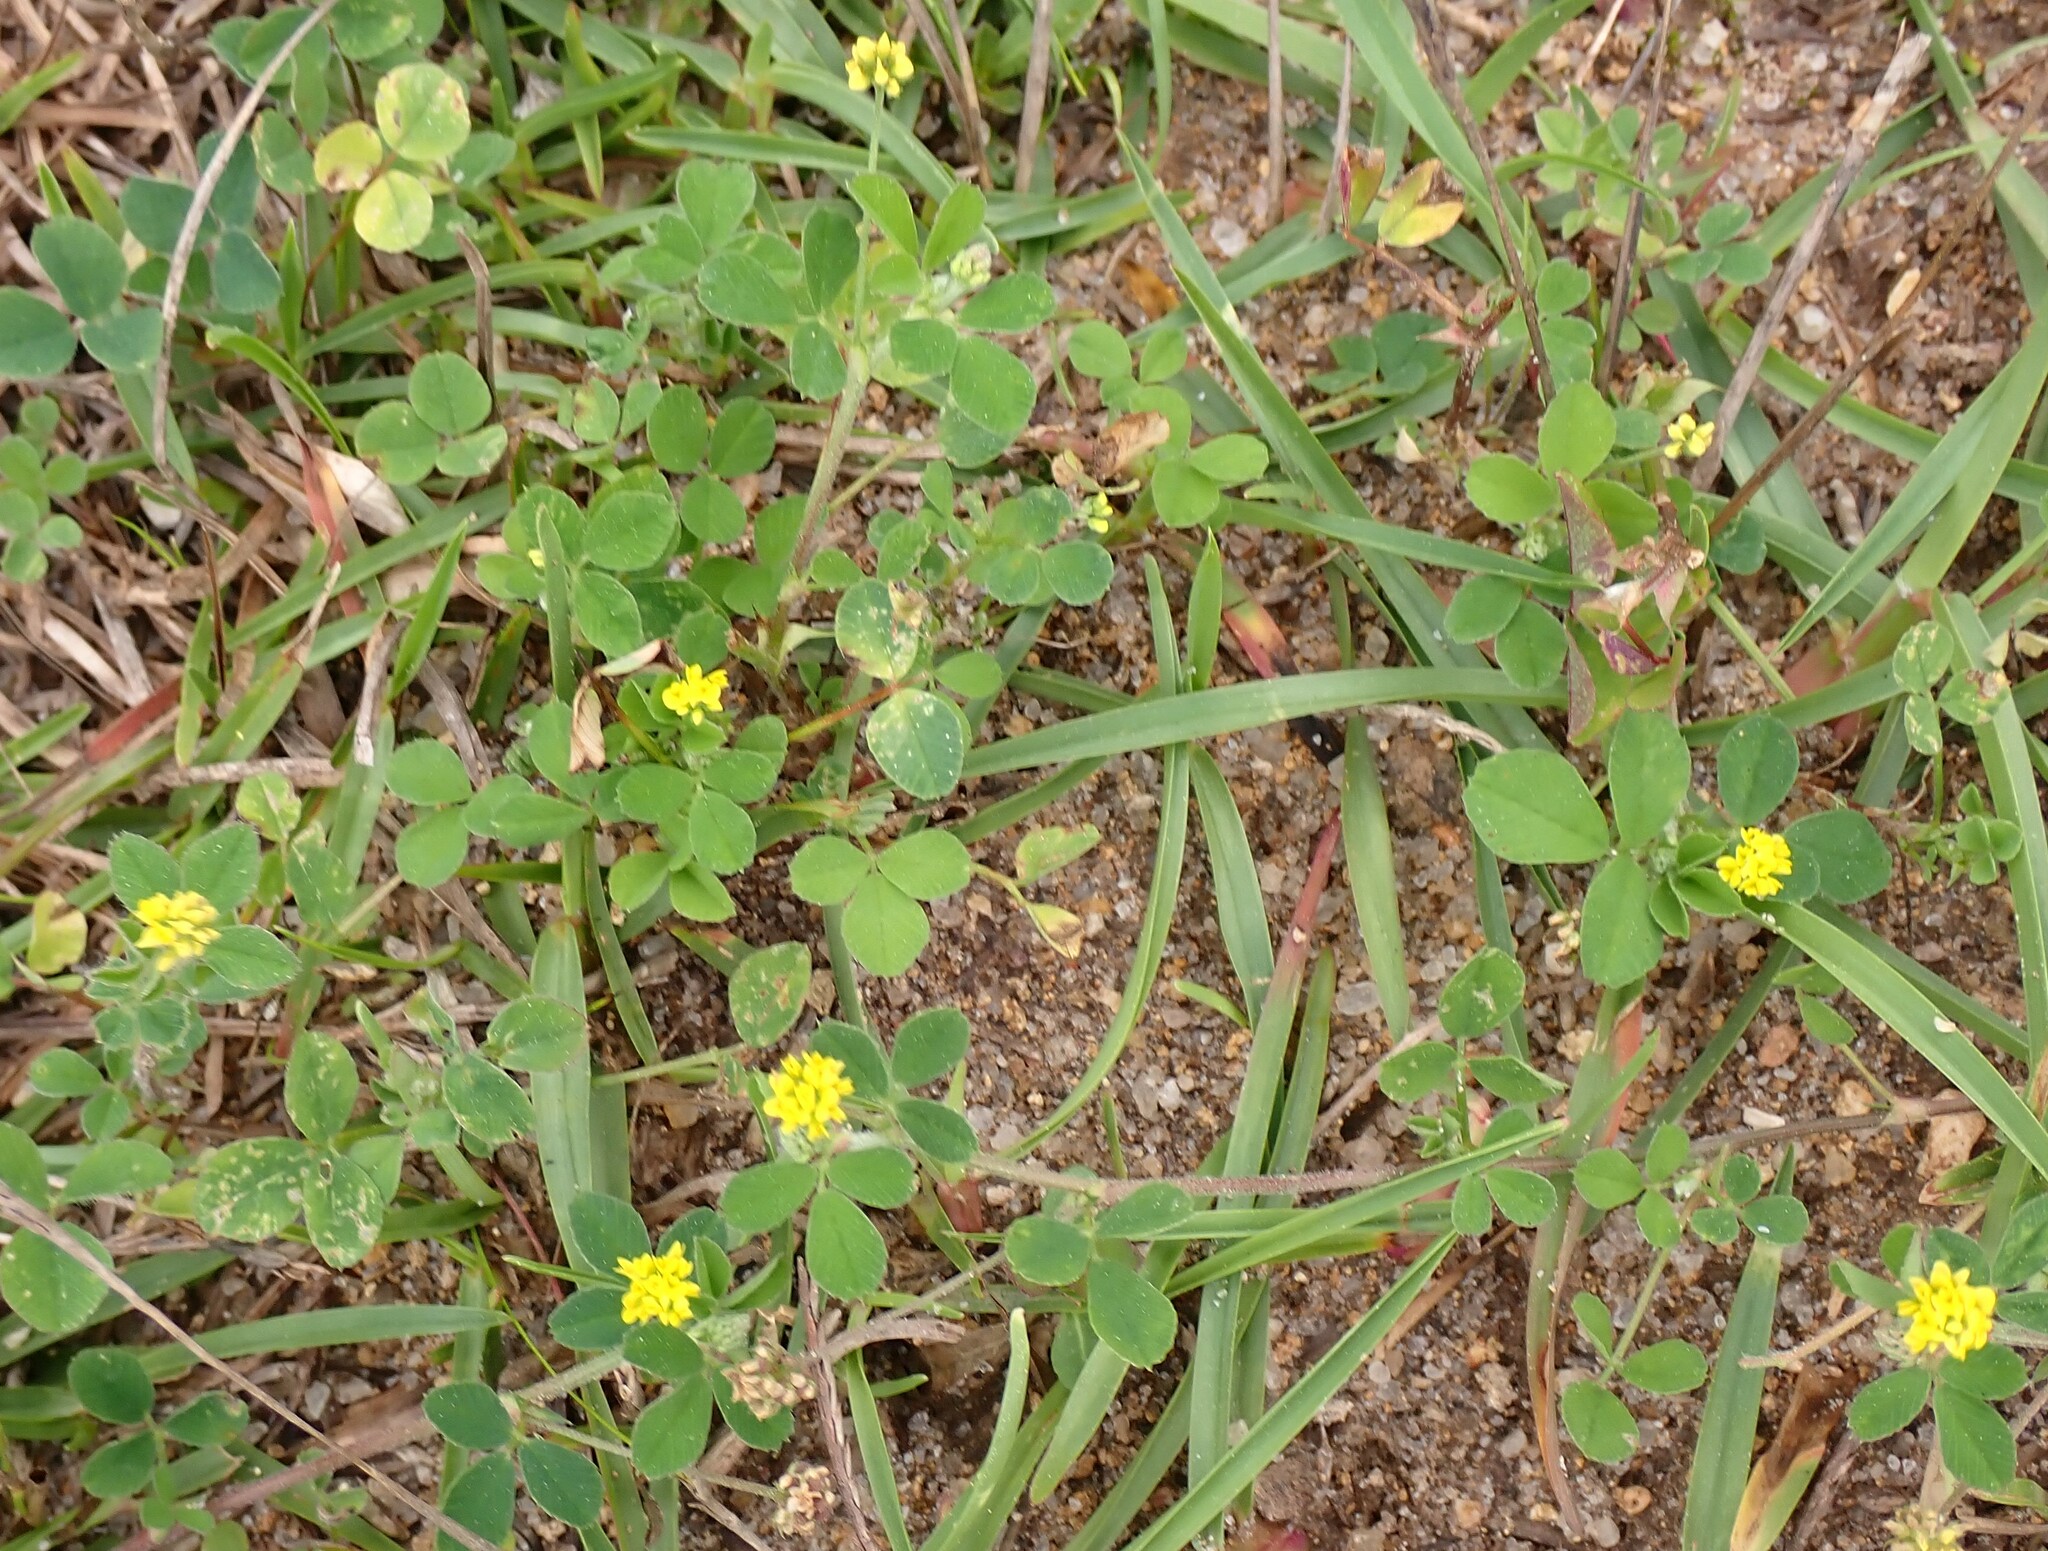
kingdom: Plantae
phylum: Tracheophyta
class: Magnoliopsida
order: Fabales
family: Fabaceae
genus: Medicago
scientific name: Medicago lupulina
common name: Black medick
